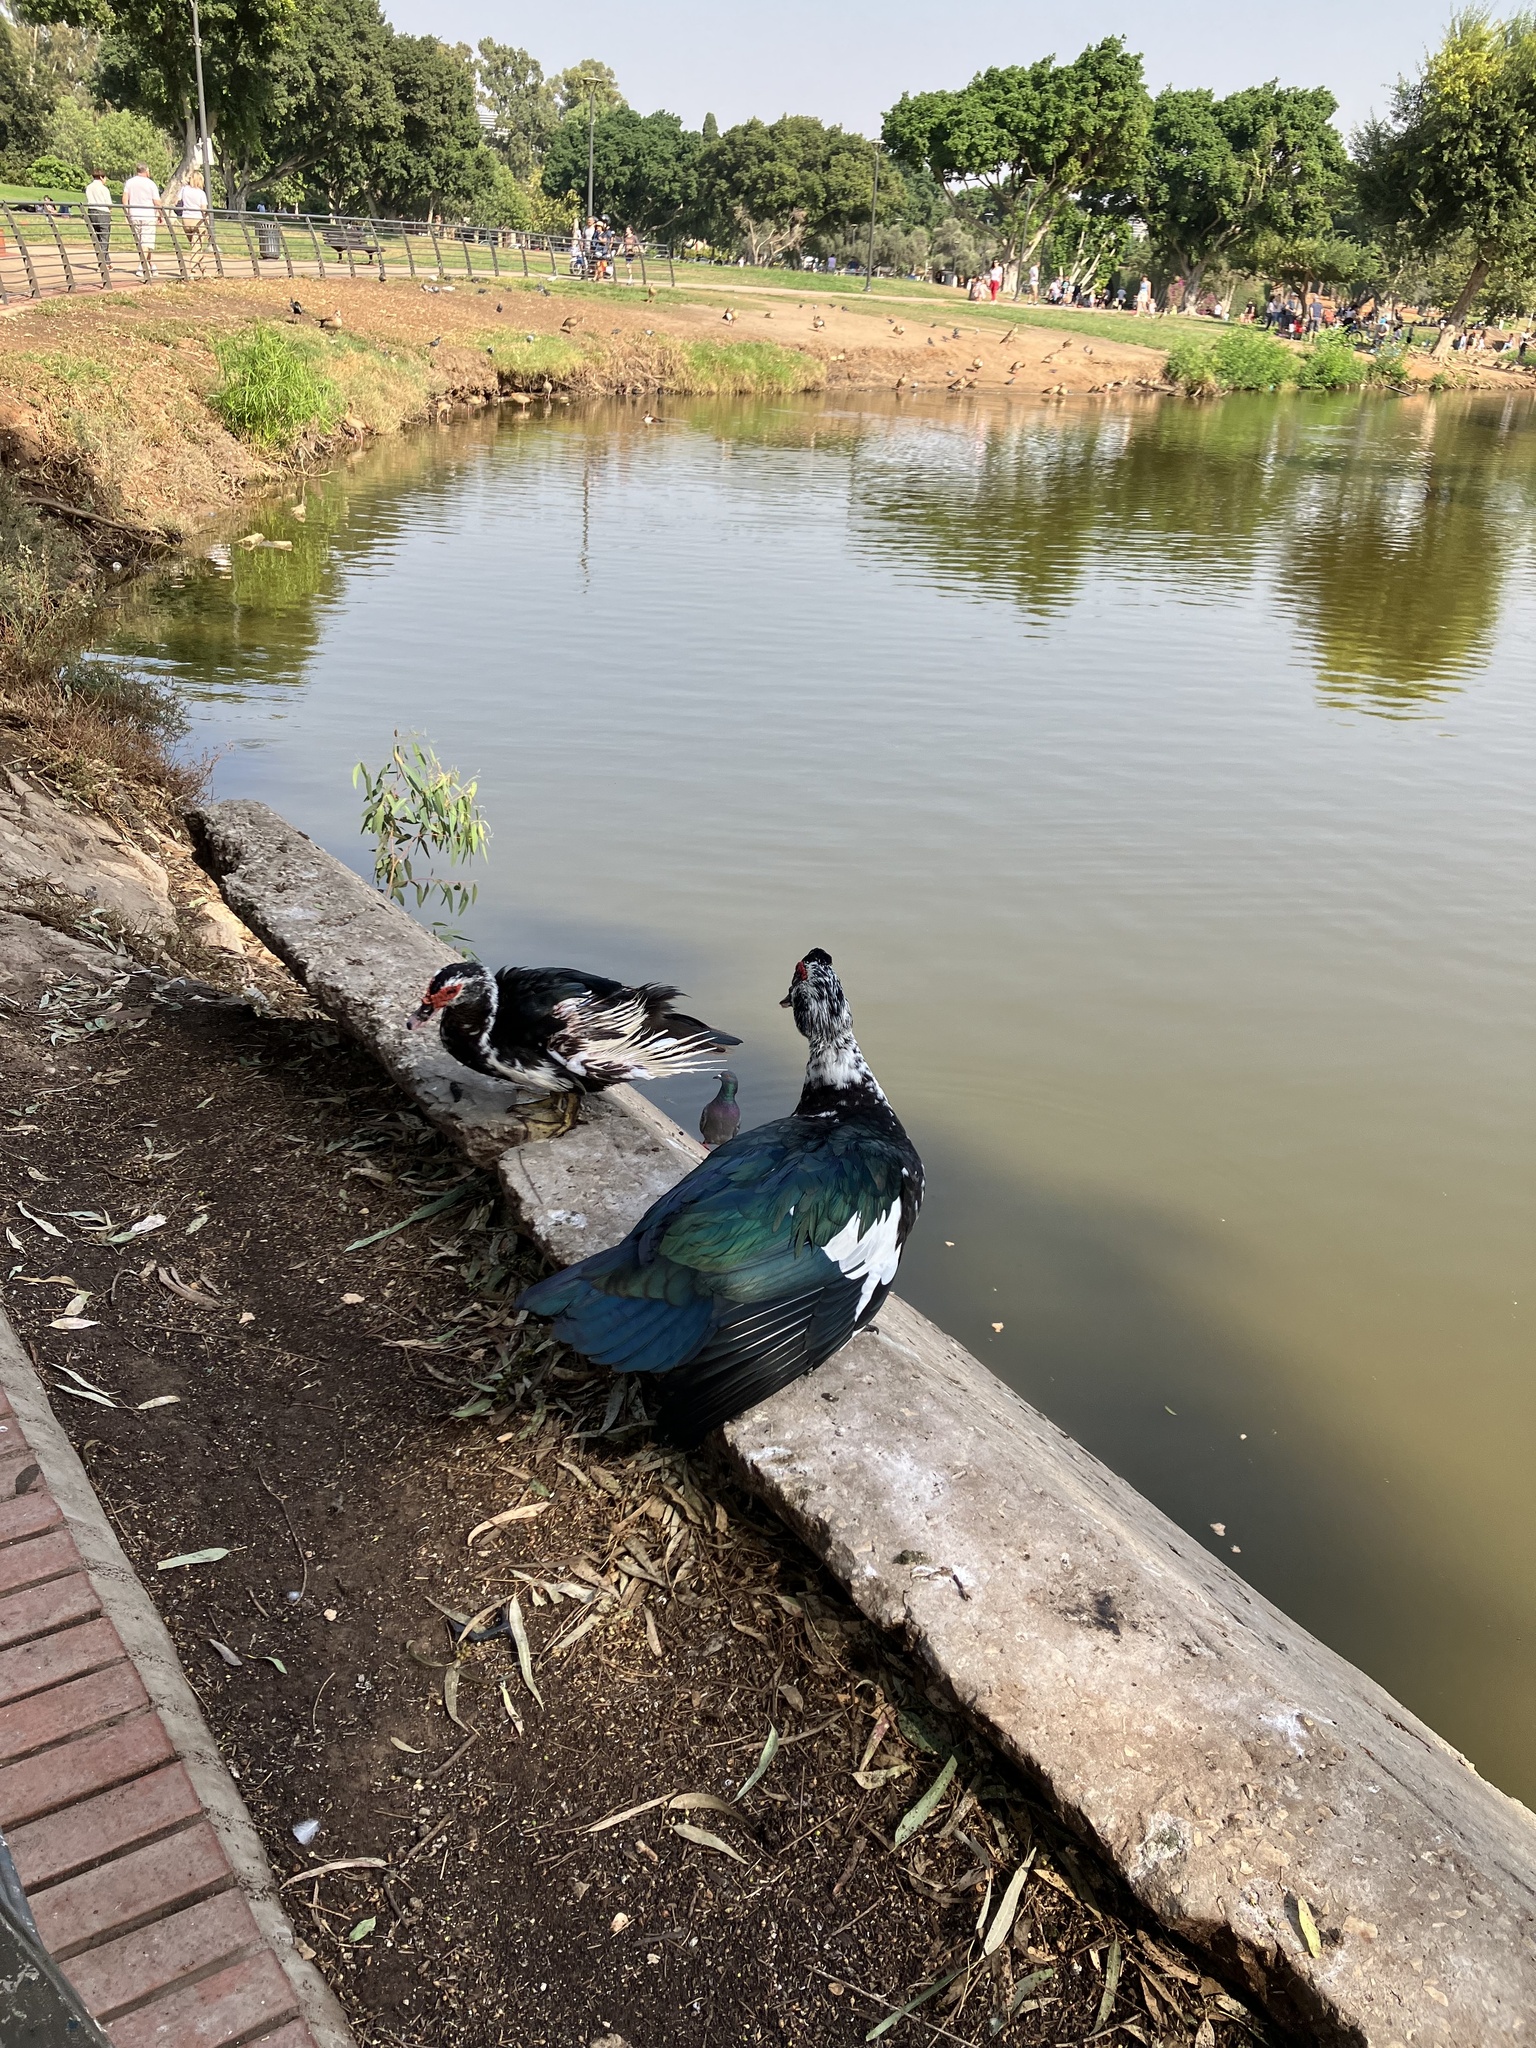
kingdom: Animalia
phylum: Chordata
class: Aves
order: Anseriformes
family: Anatidae
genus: Cairina
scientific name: Cairina moschata
